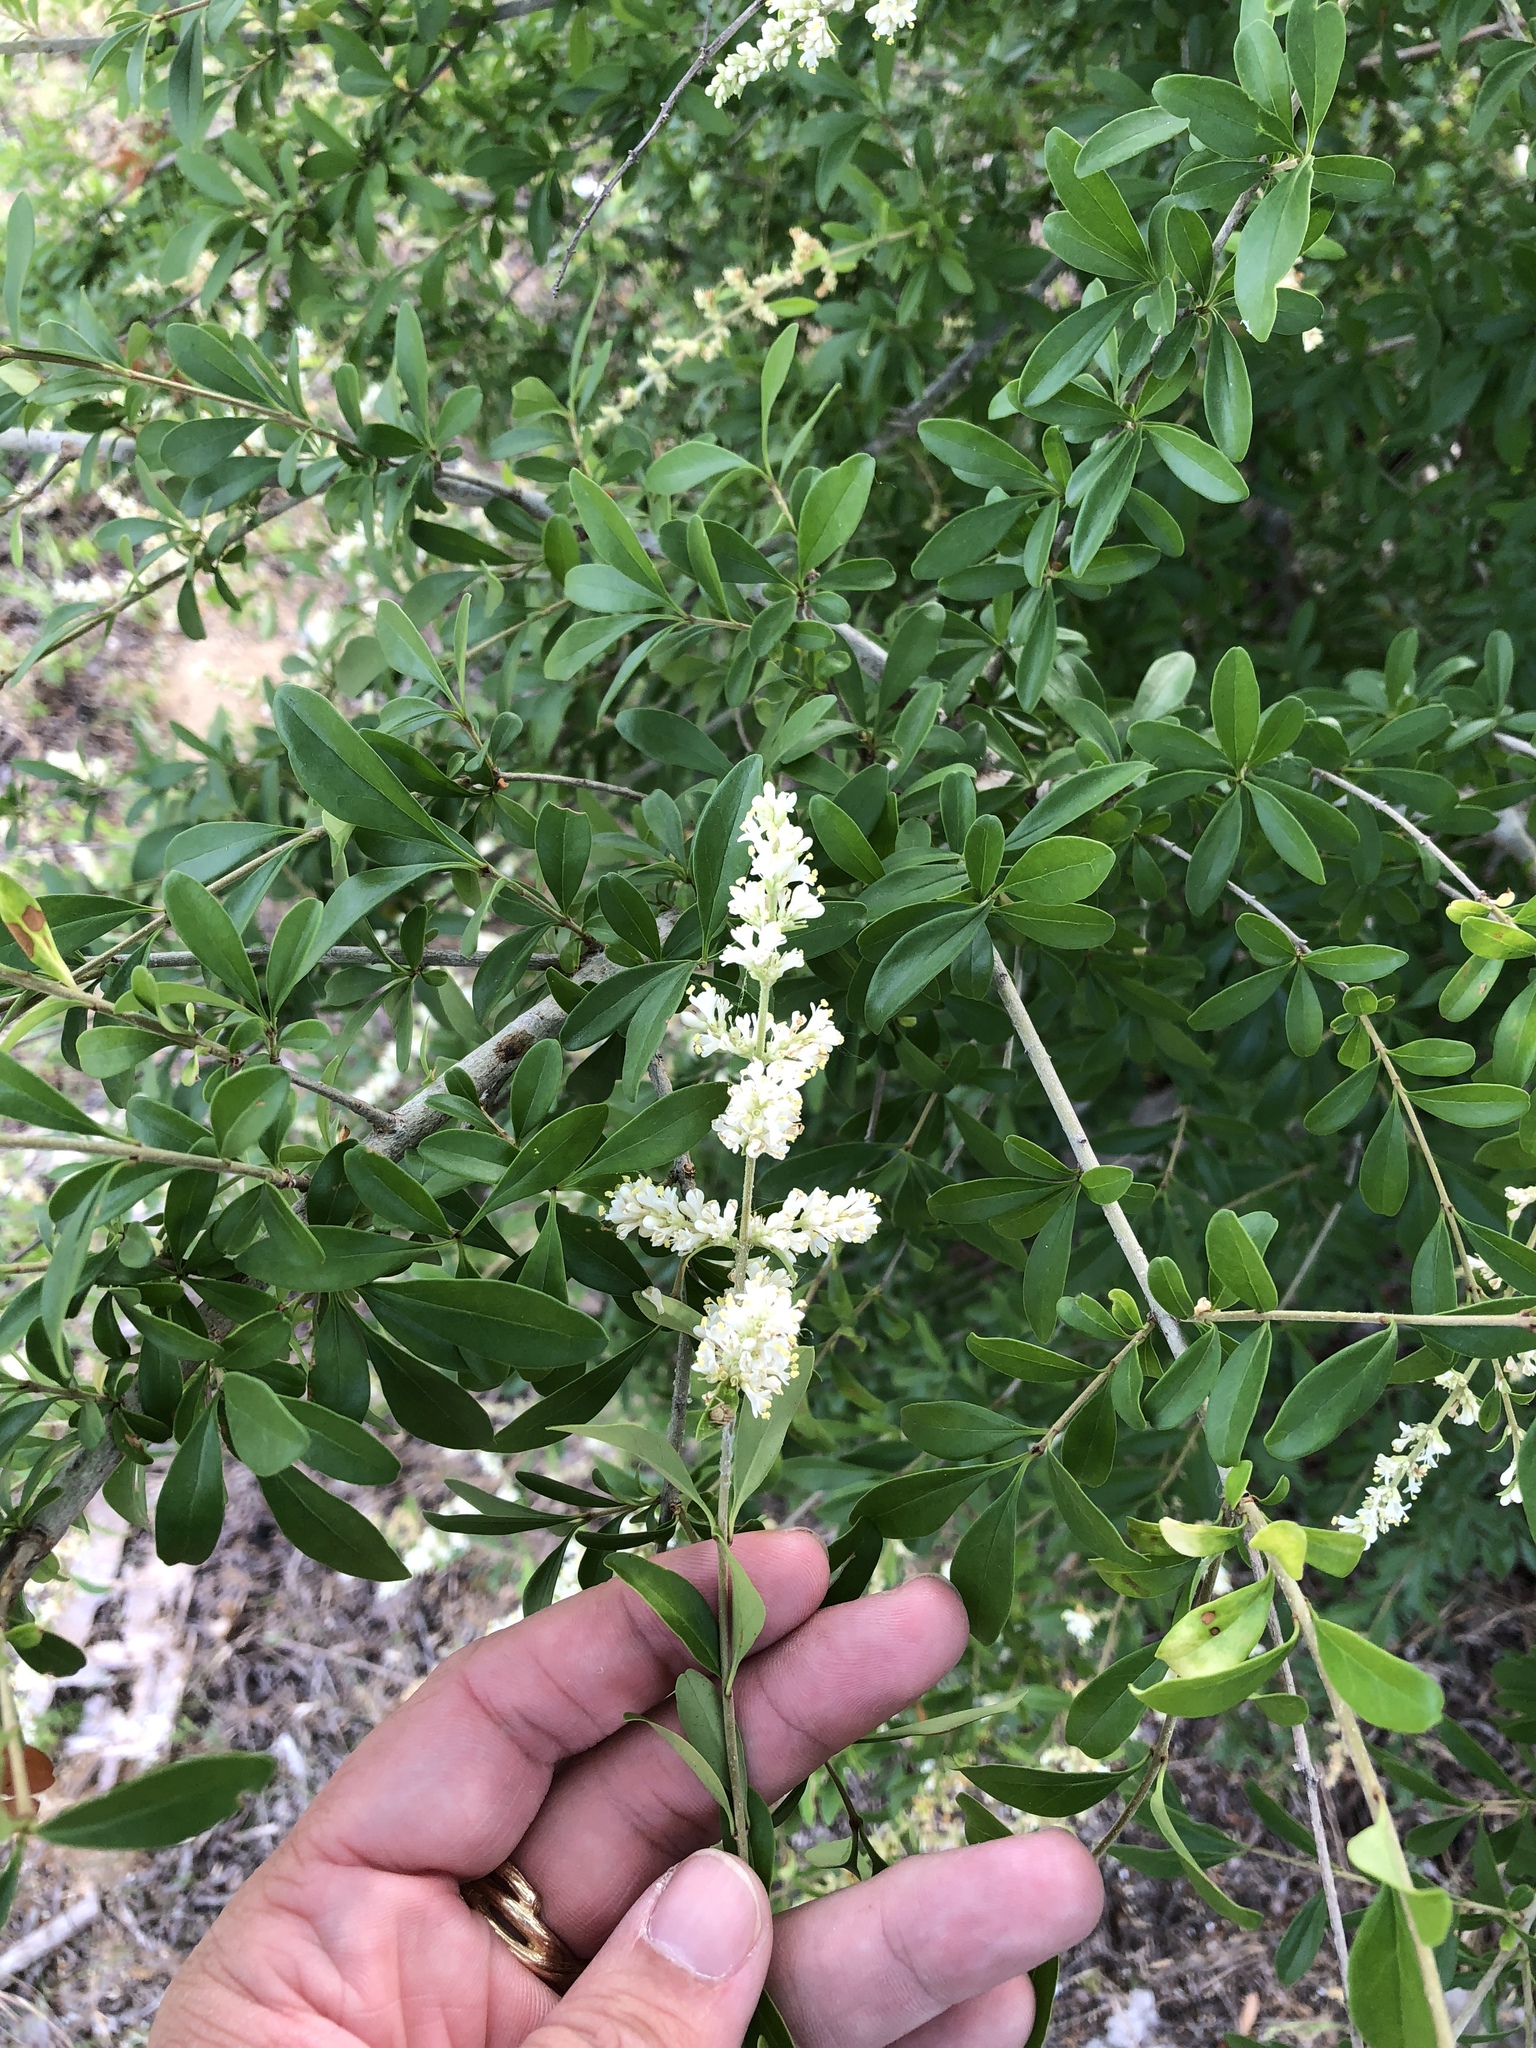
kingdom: Plantae
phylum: Tracheophyta
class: Magnoliopsida
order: Lamiales
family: Oleaceae
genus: Ligustrum
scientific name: Ligustrum quihoui
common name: Waxyleaf privet
